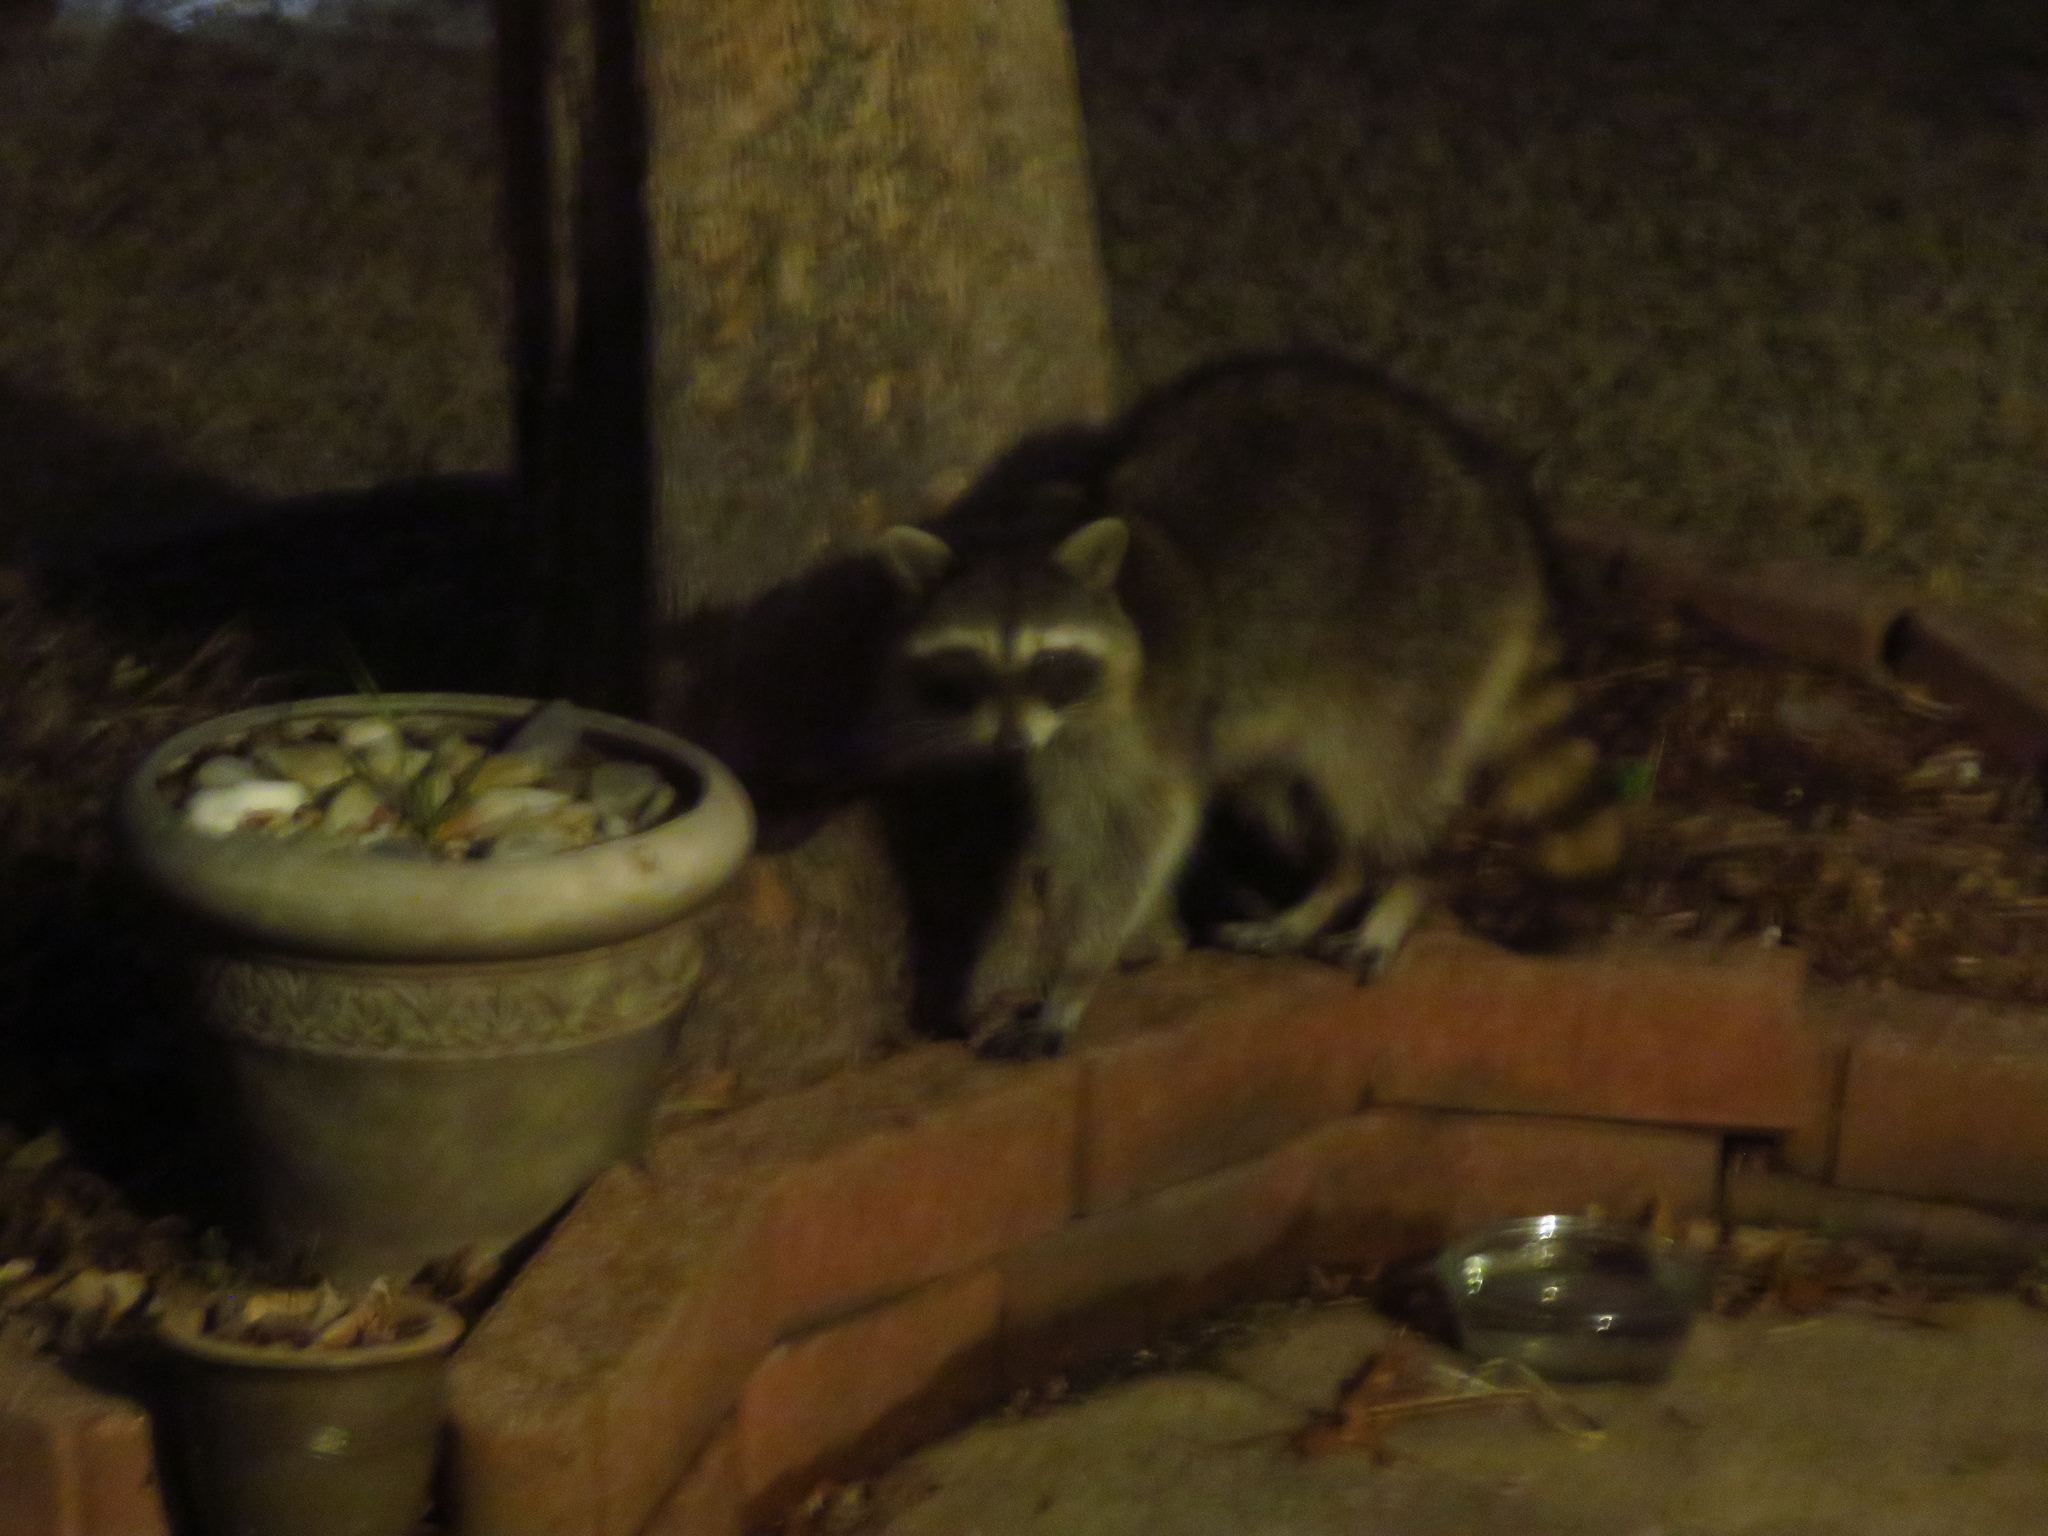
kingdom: Animalia
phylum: Chordata
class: Mammalia
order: Carnivora
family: Procyonidae
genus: Procyon
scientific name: Procyon lotor
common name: Raccoon
